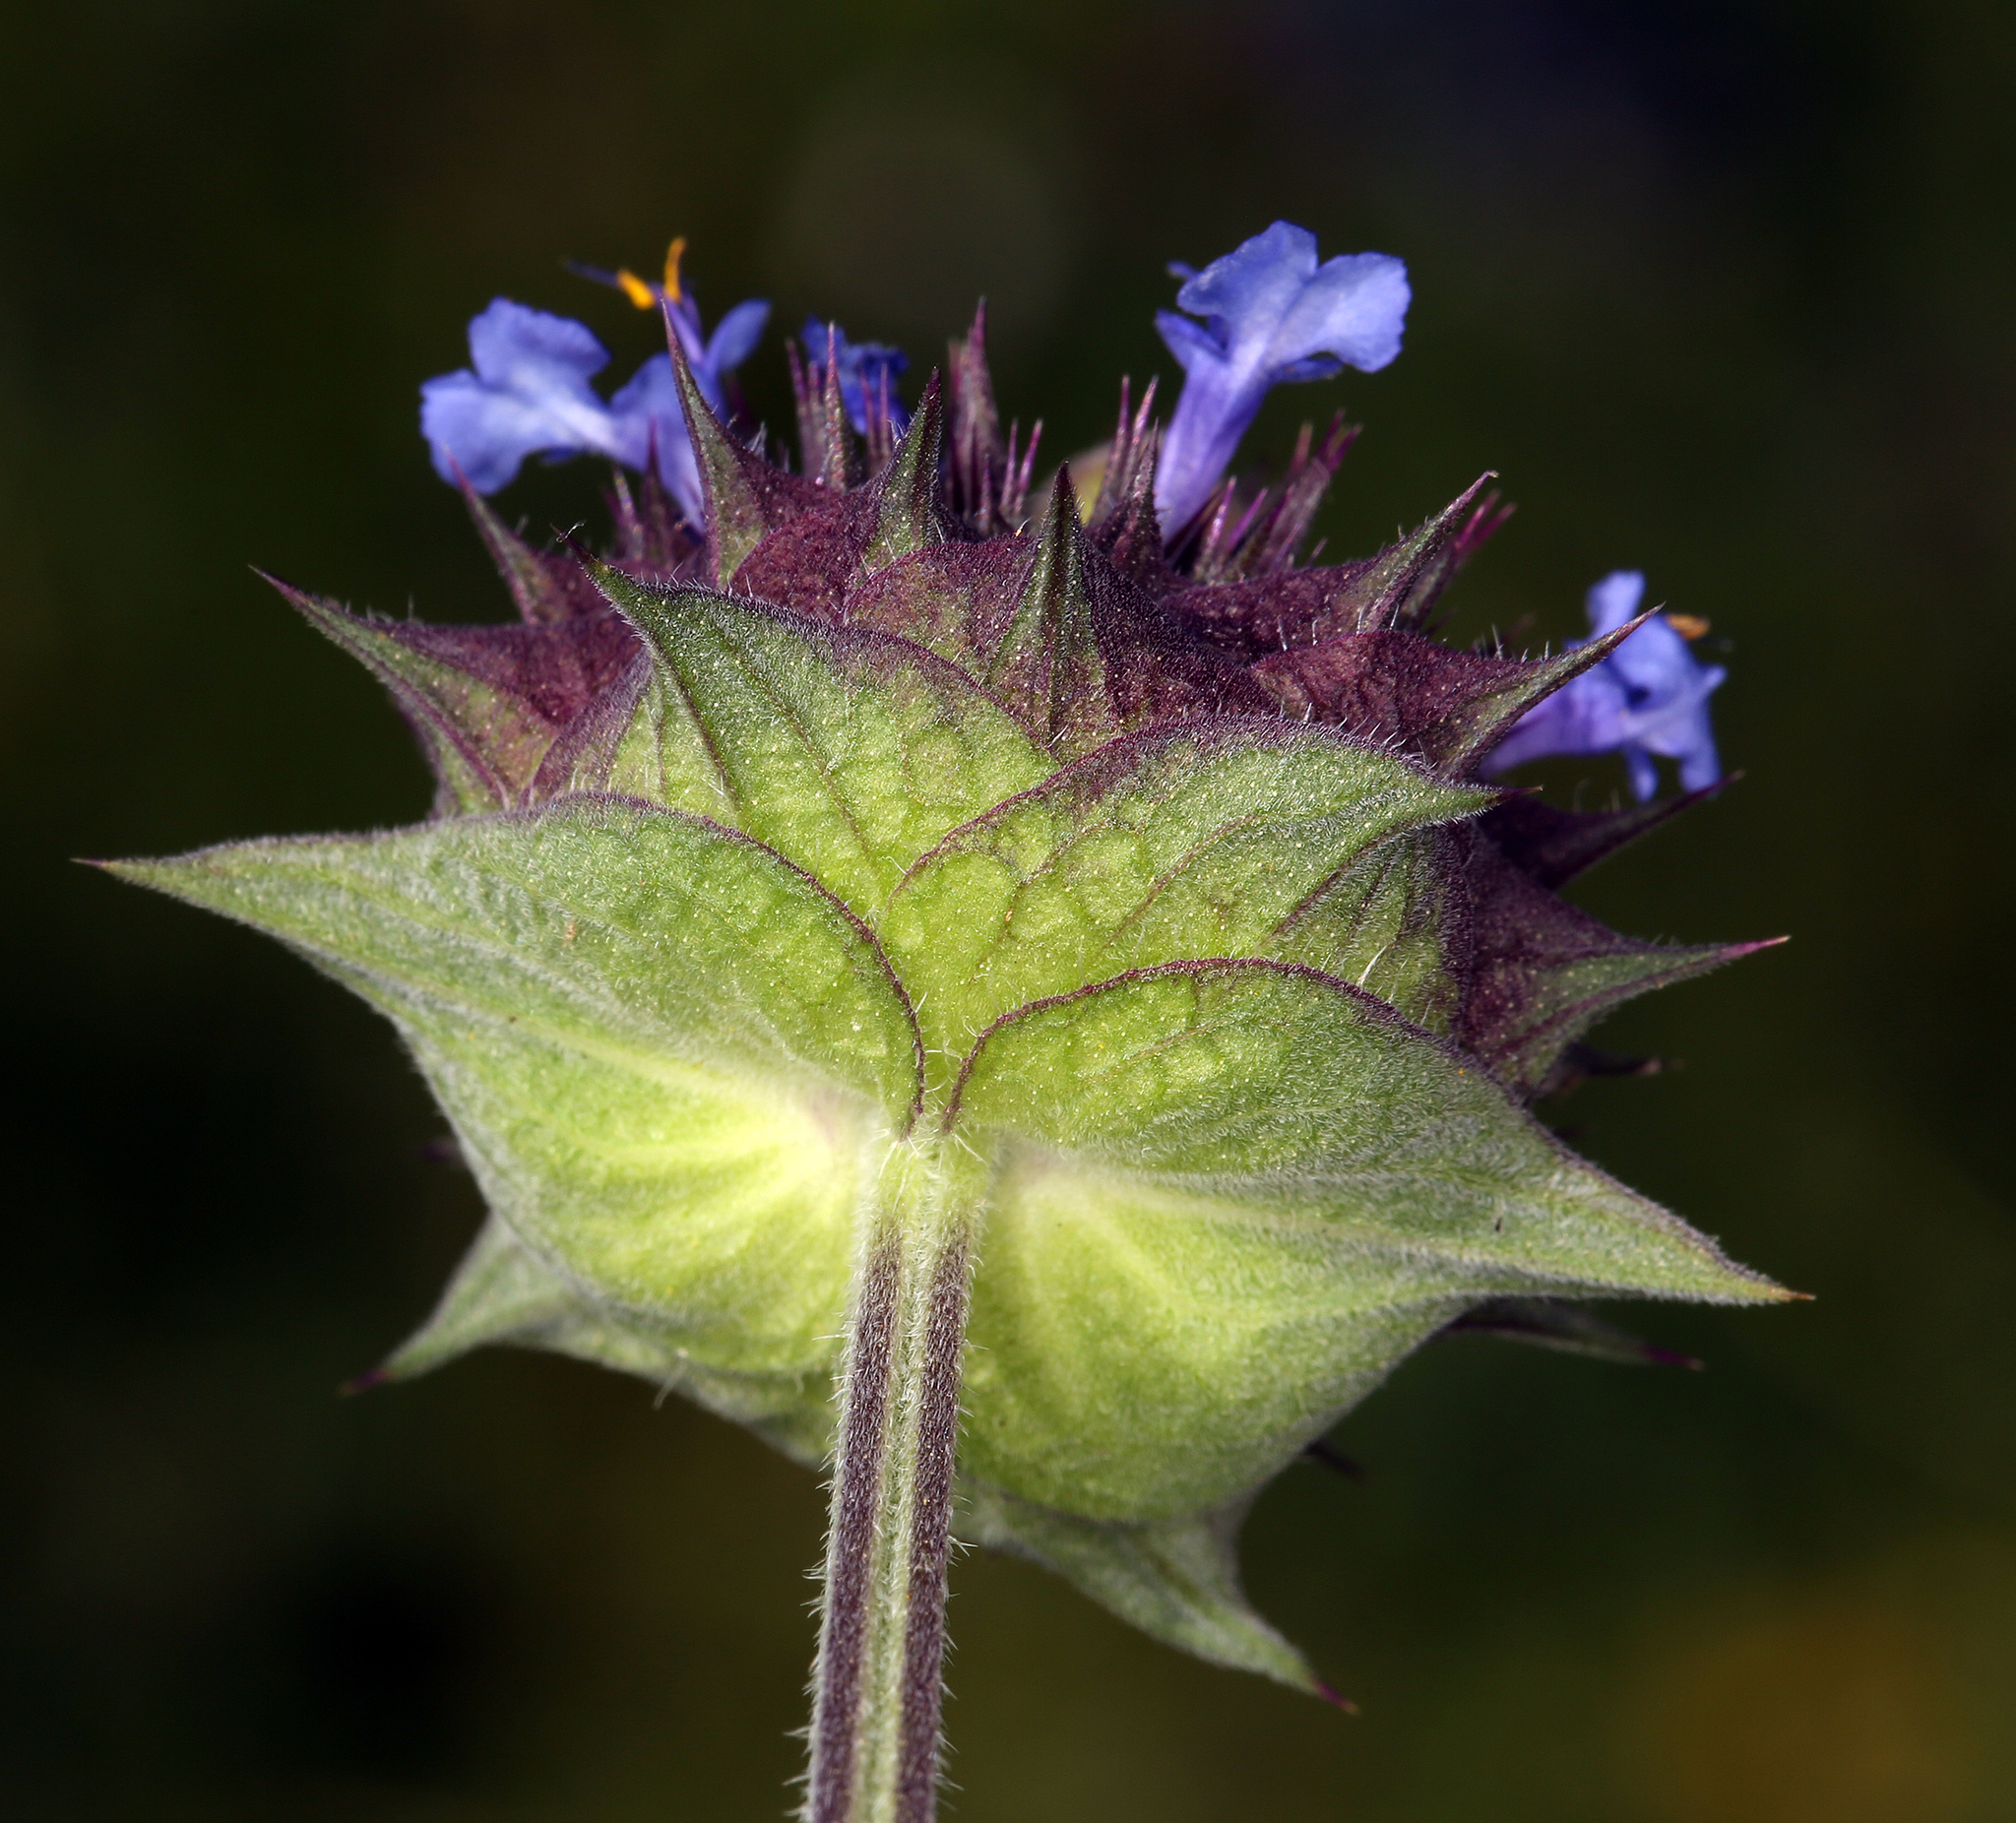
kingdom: Plantae
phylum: Tracheophyta
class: Magnoliopsida
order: Lamiales
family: Lamiaceae
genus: Salvia
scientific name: Salvia columbariae
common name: Chia
